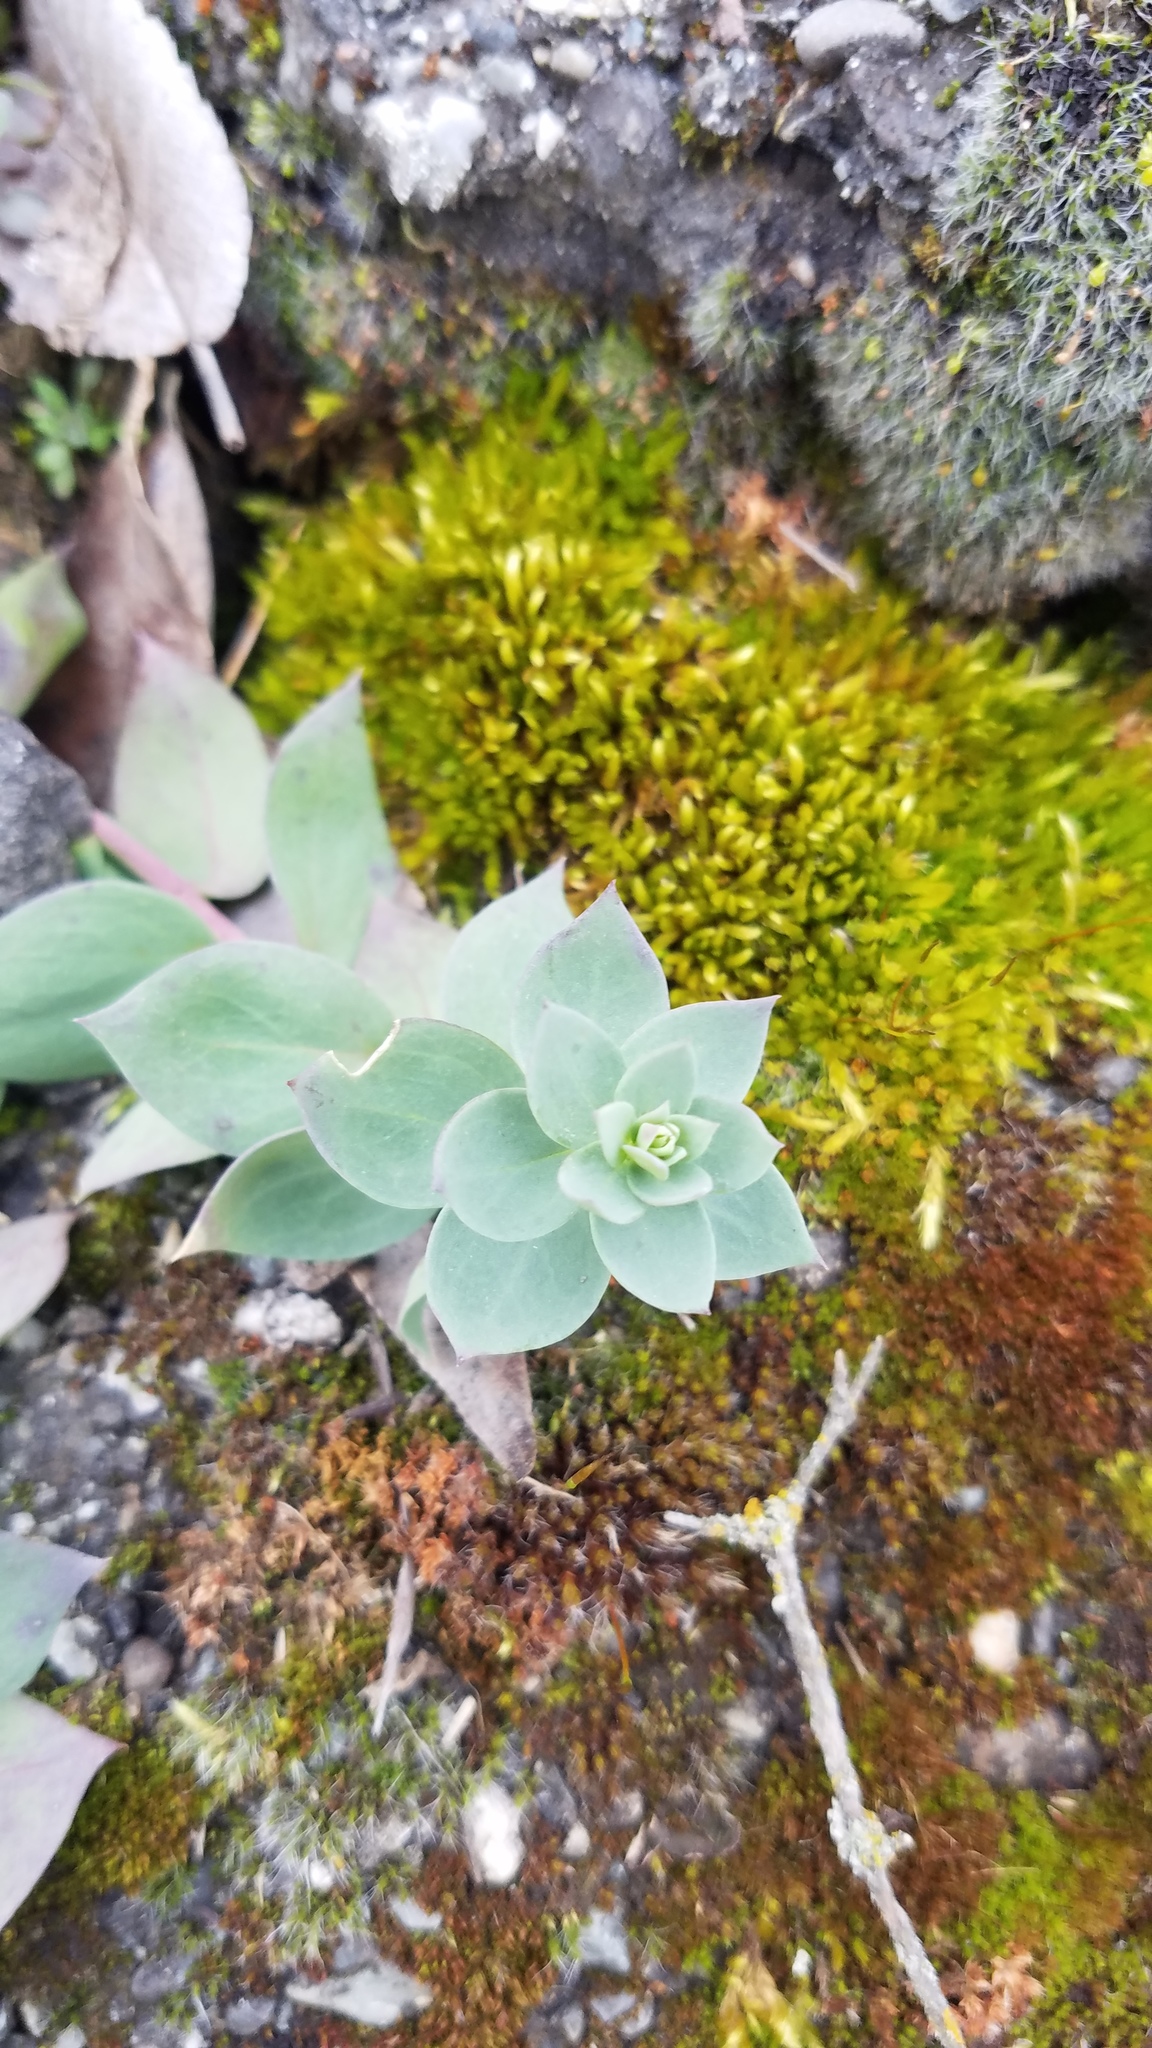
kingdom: Plantae
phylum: Tracheophyta
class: Magnoliopsida
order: Lamiales
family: Plantaginaceae
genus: Linaria
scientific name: Linaria dalmatica
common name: Dalmatian toadflax
